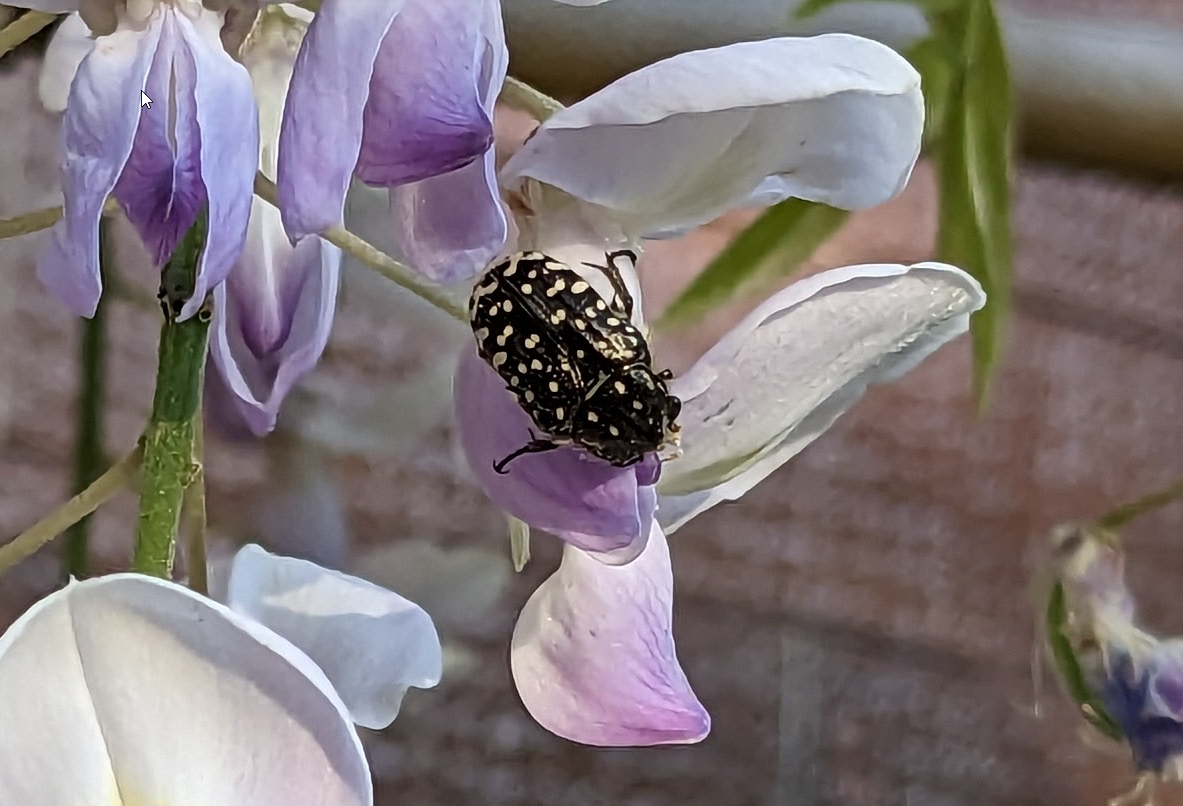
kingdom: Animalia
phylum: Arthropoda
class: Insecta
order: Coleoptera
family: Scarabaeidae
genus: Oxythyrea
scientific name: Oxythyrea funesta
